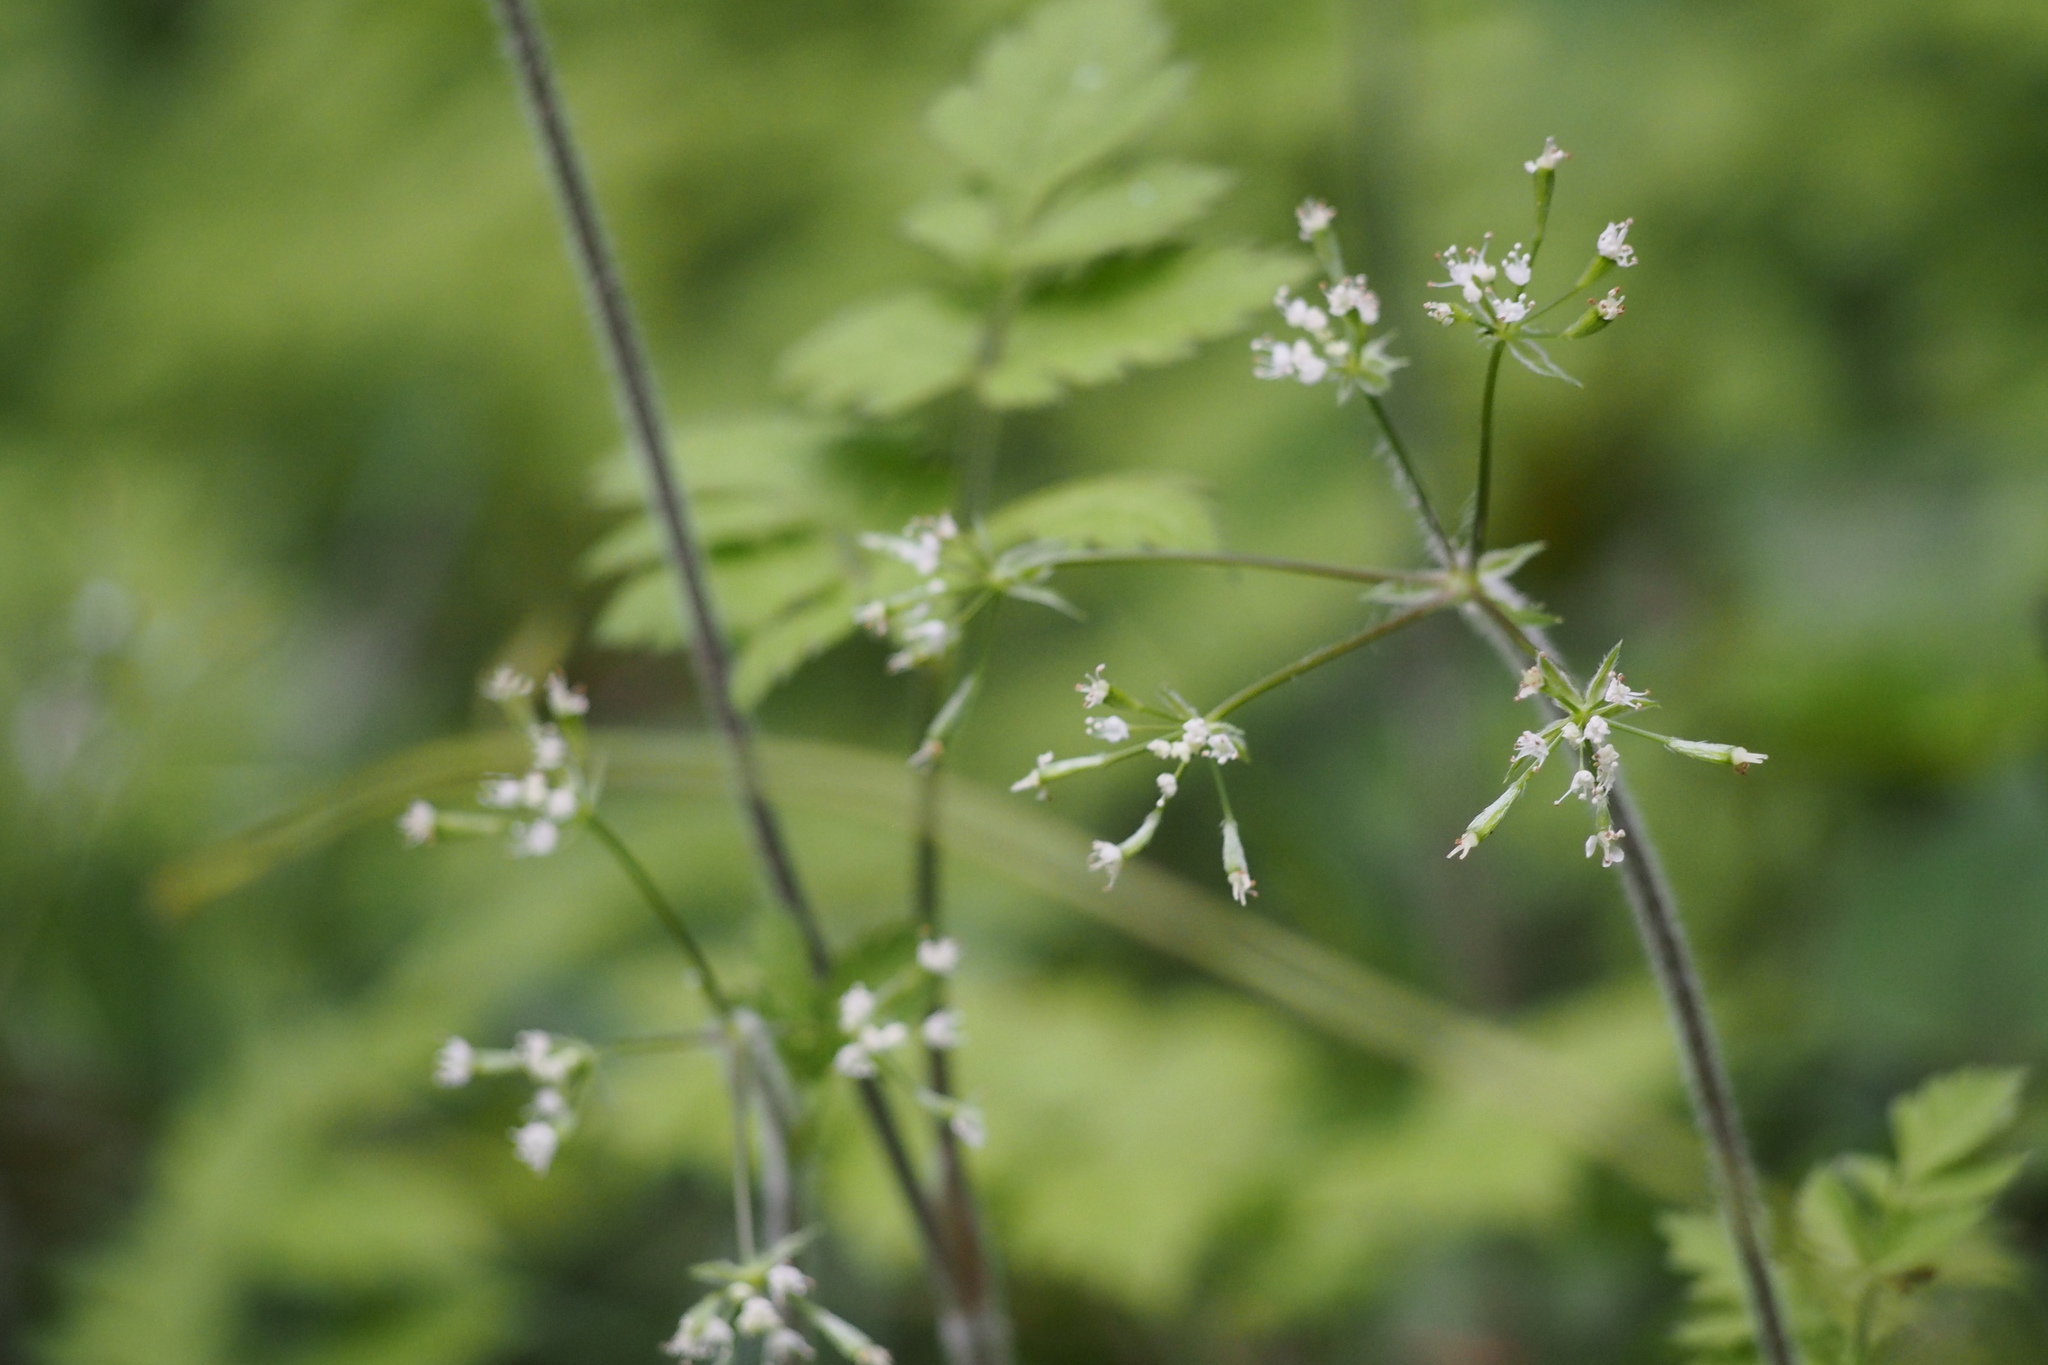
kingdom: Plantae
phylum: Tracheophyta
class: Magnoliopsida
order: Apiales
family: Apiaceae
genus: Osmorhiza
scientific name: Osmorhiza aristata
